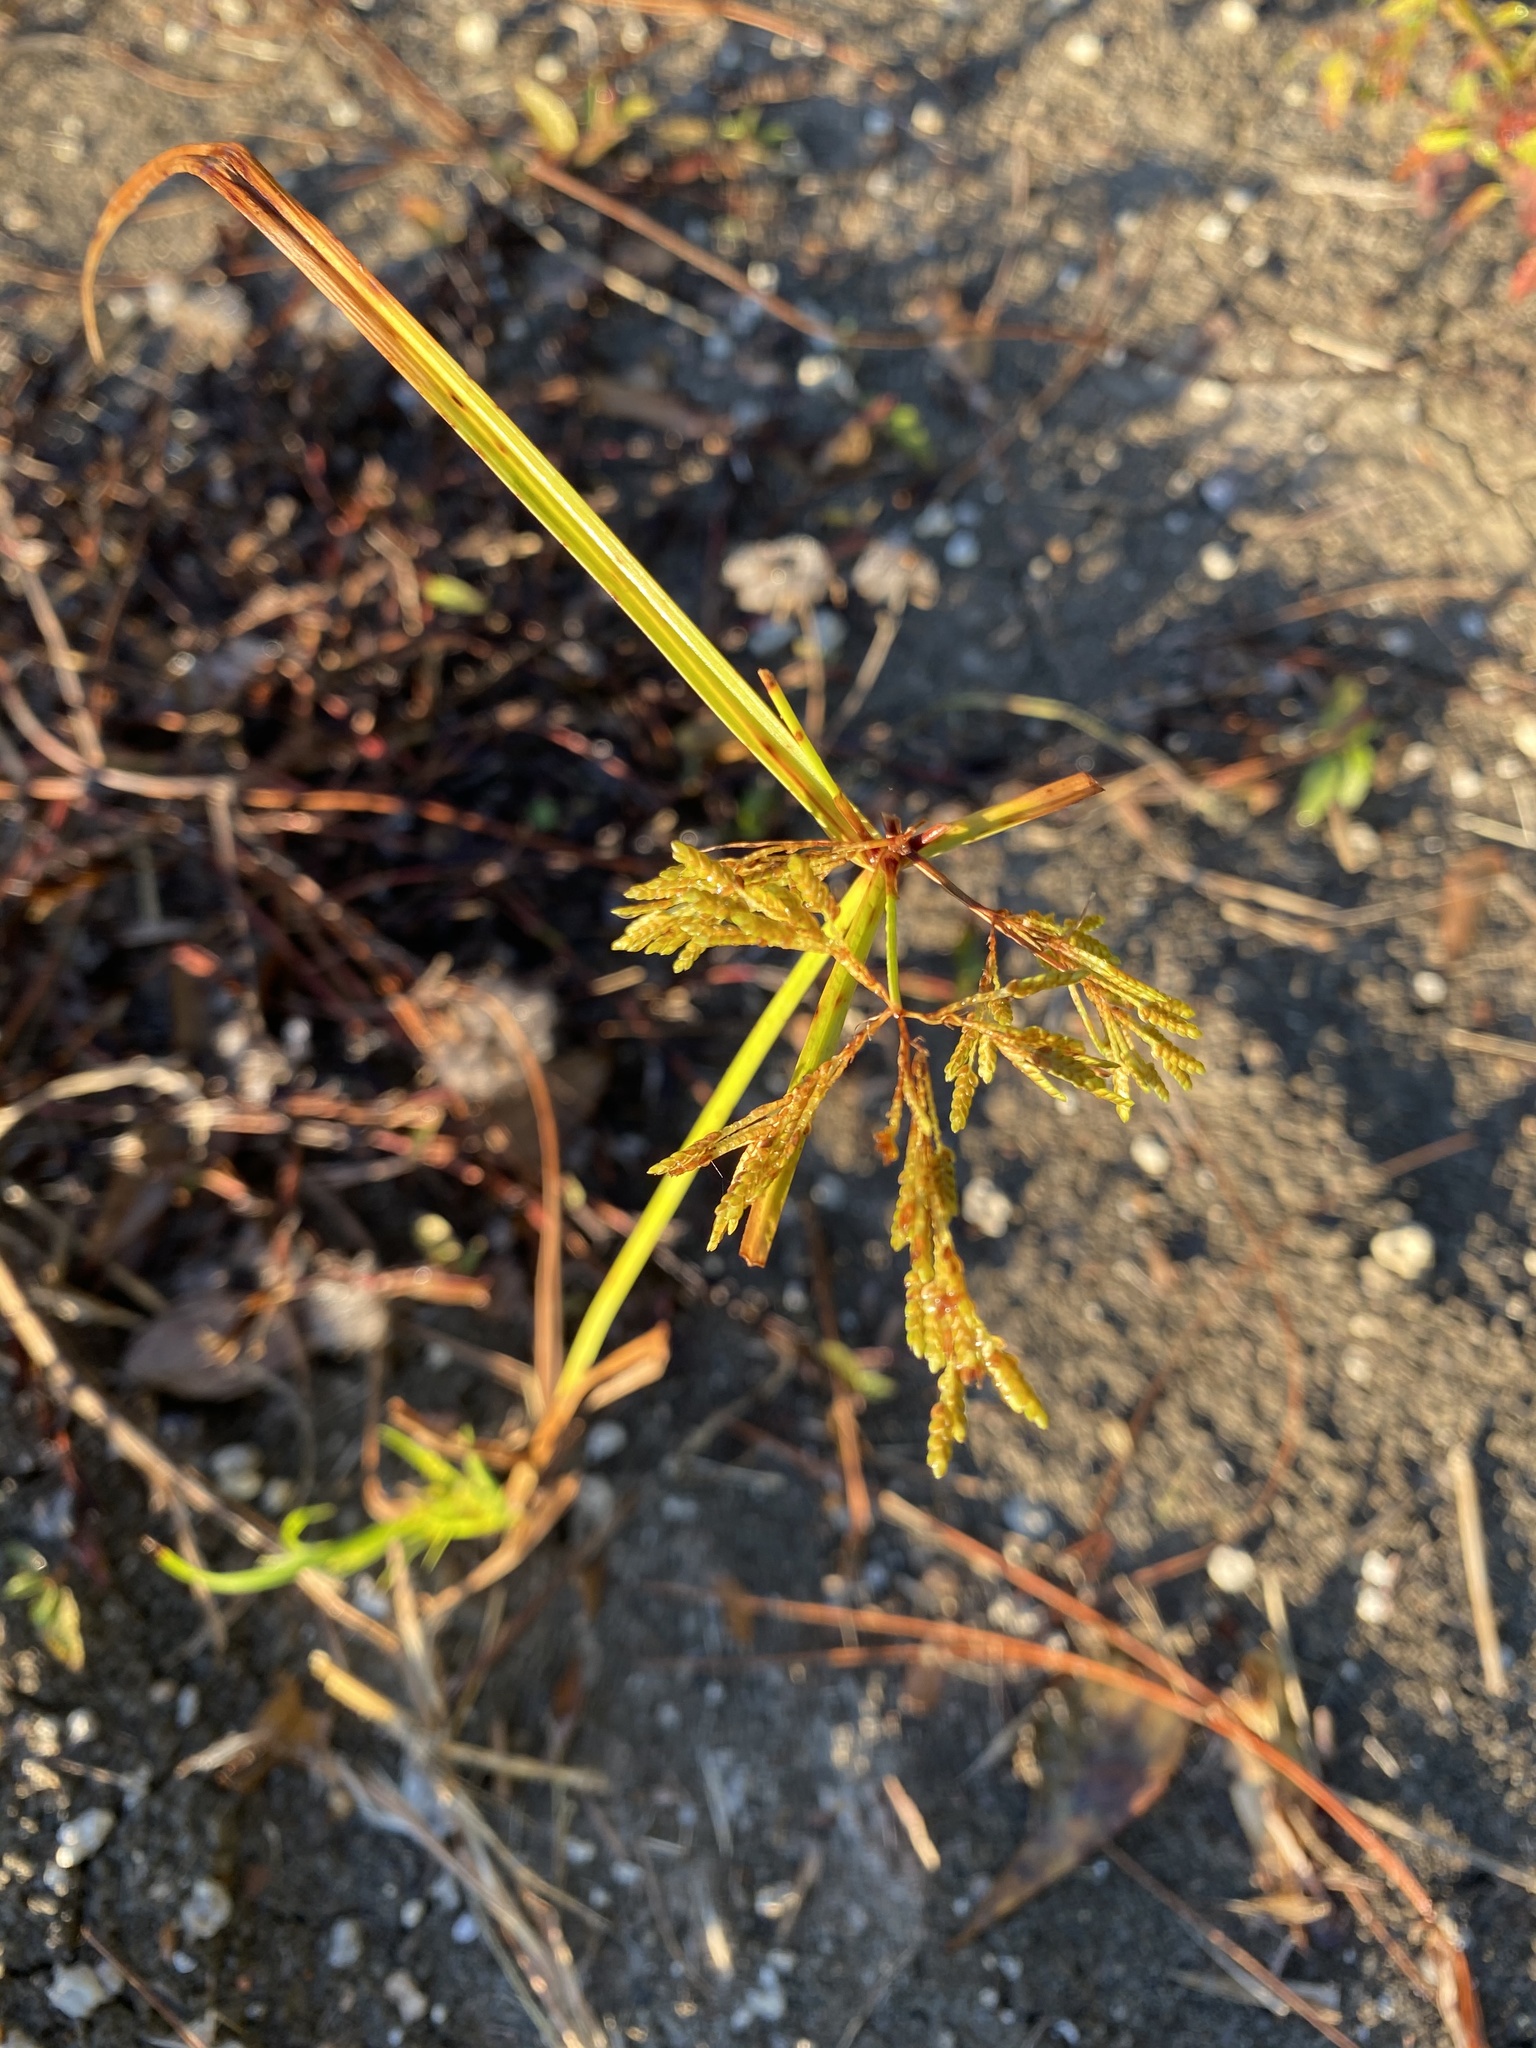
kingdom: Plantae
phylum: Tracheophyta
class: Liliopsida
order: Poales
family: Cyperaceae
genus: Cyperus
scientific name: Cyperus iria
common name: Ricefield flatsedge
